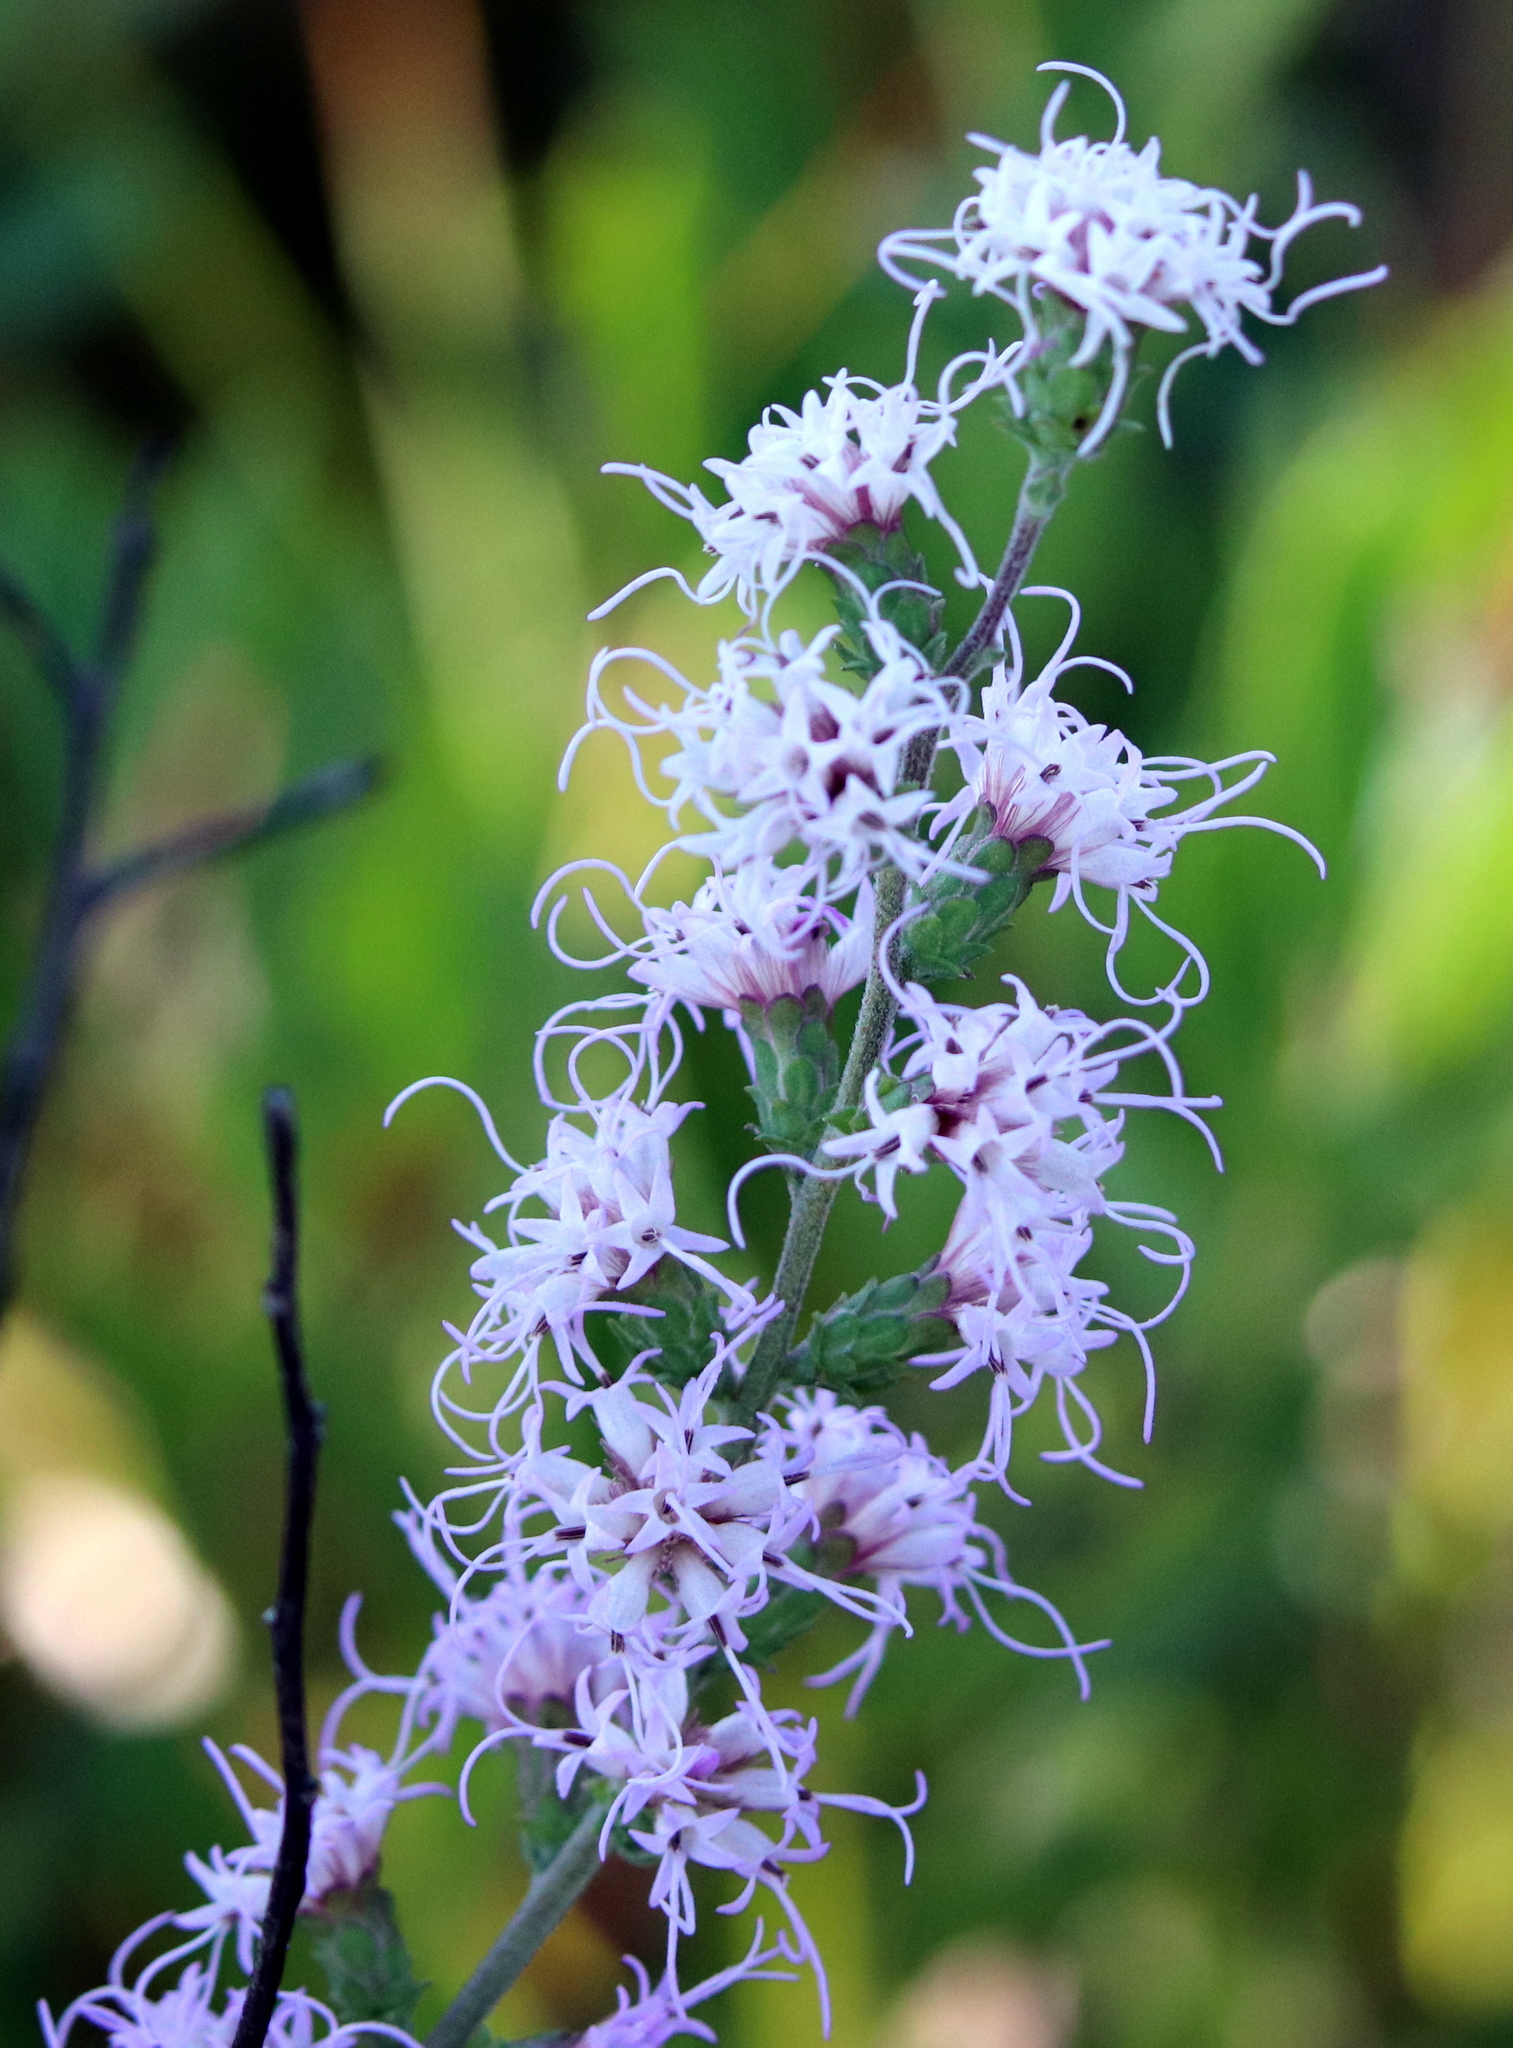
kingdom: Plantae
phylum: Tracheophyta
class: Magnoliopsida
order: Asterales
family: Asteraceae
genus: Liatris
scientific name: Liatris squarrulosa
